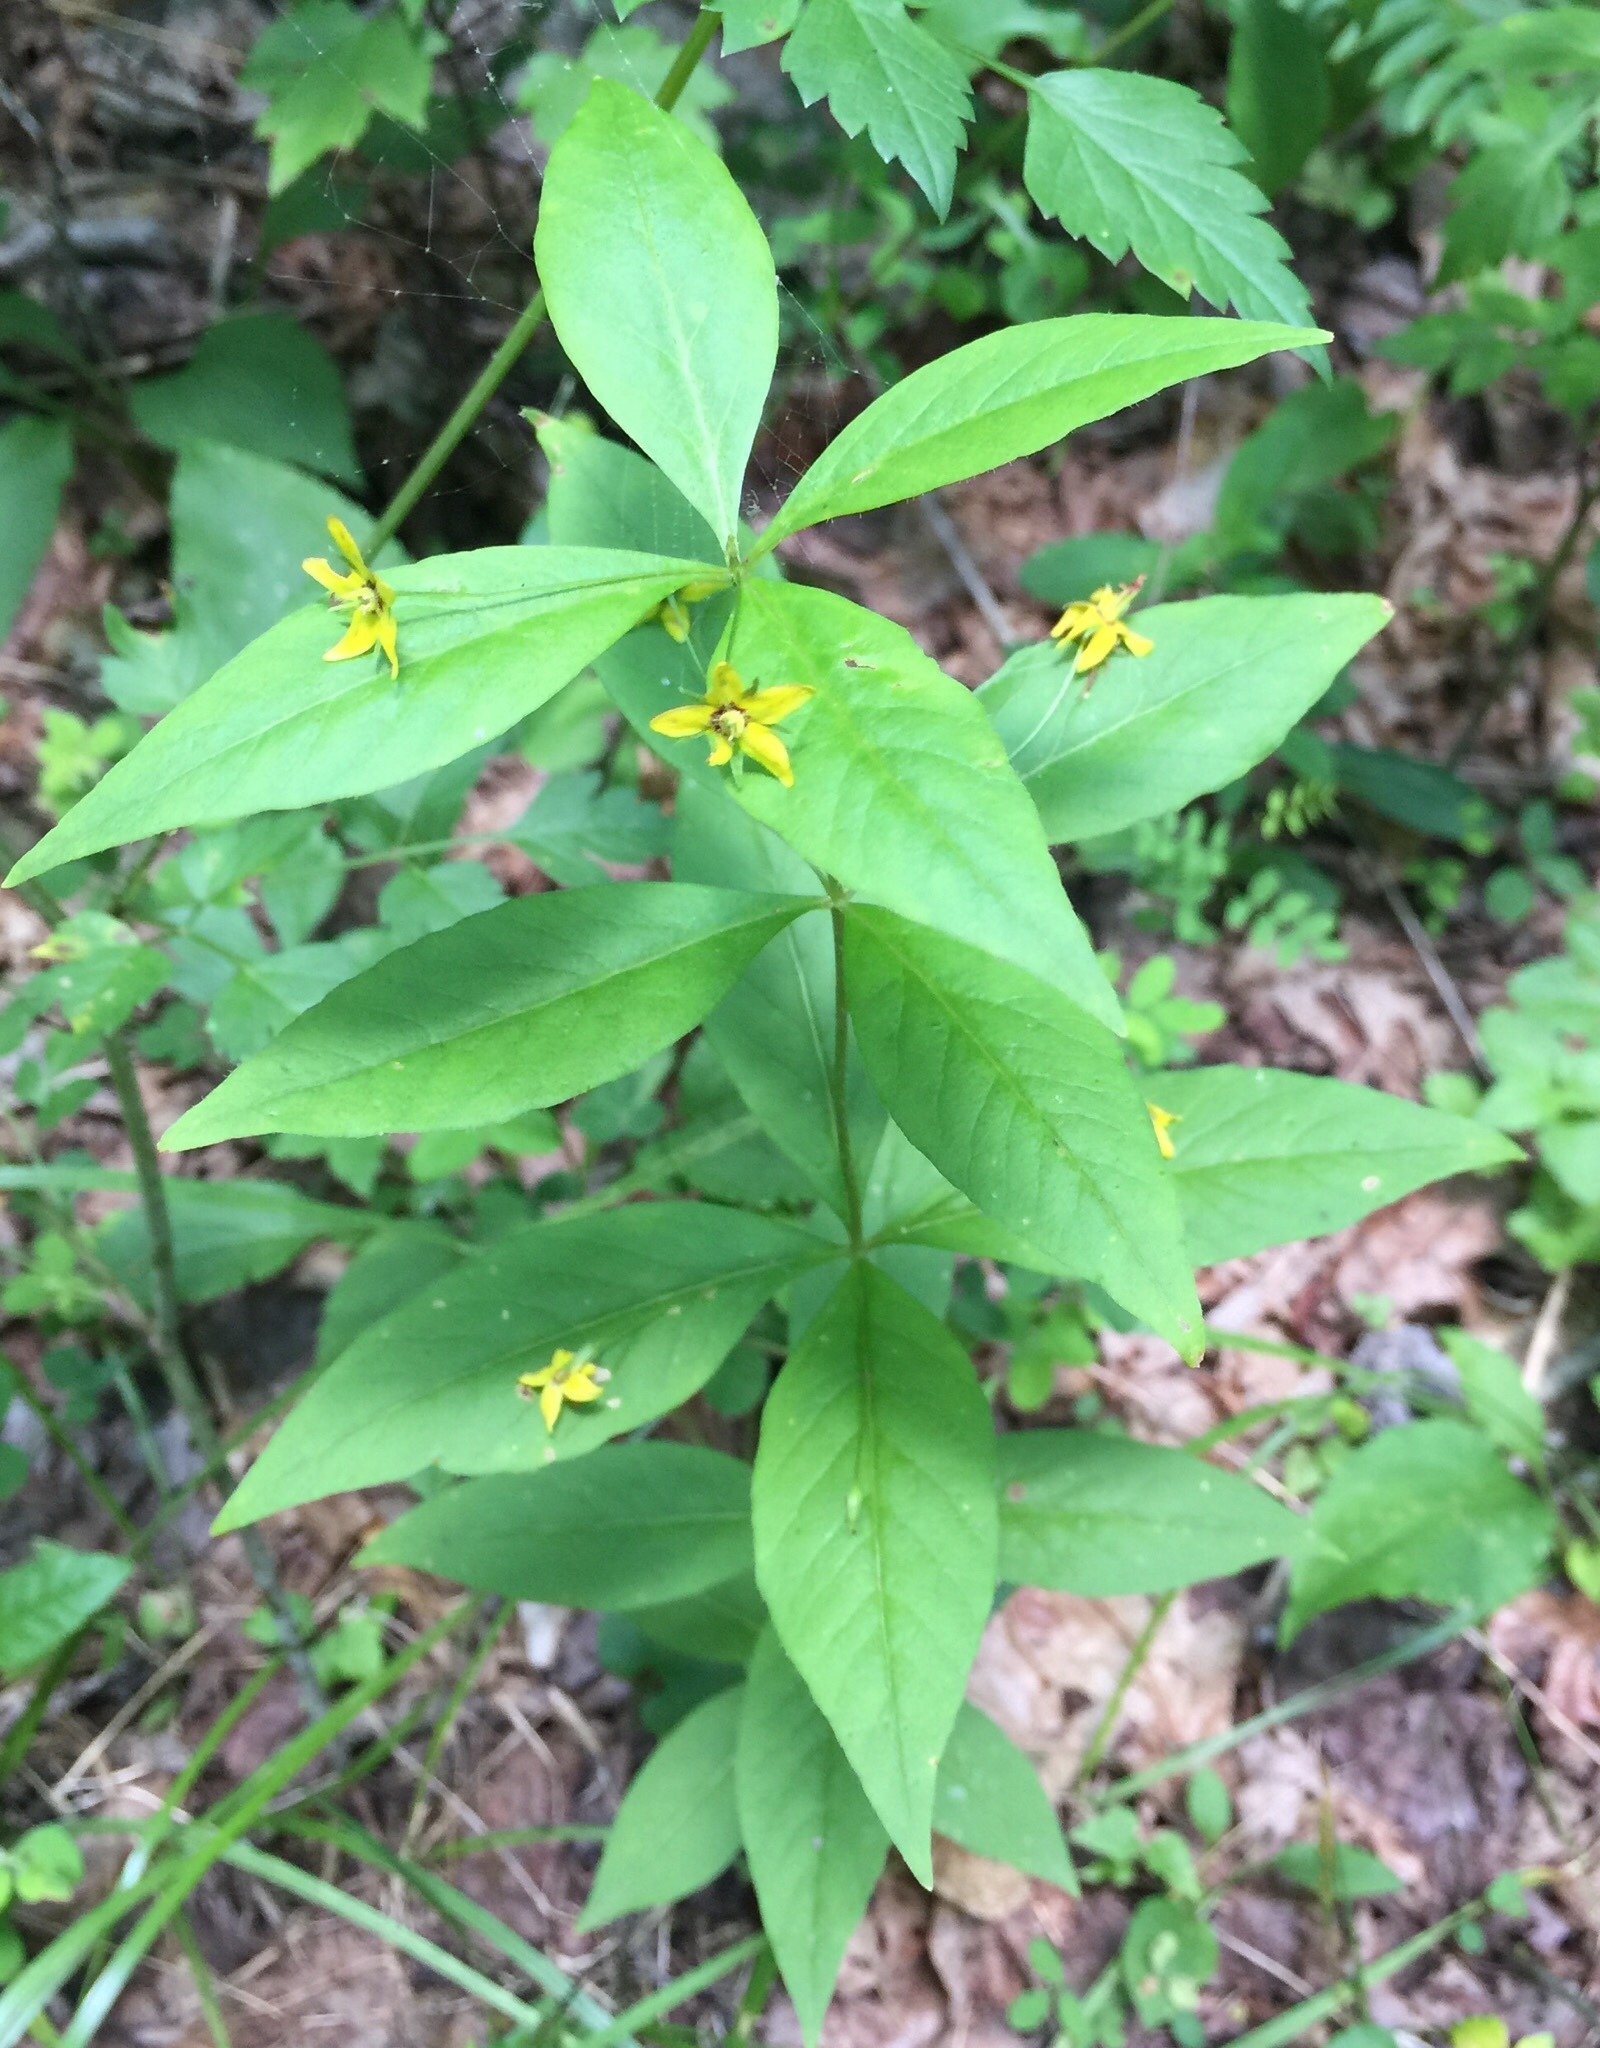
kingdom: Plantae
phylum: Tracheophyta
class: Magnoliopsida
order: Ericales
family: Primulaceae
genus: Lysimachia
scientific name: Lysimachia quadrifolia
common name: Whorled loosestrife
